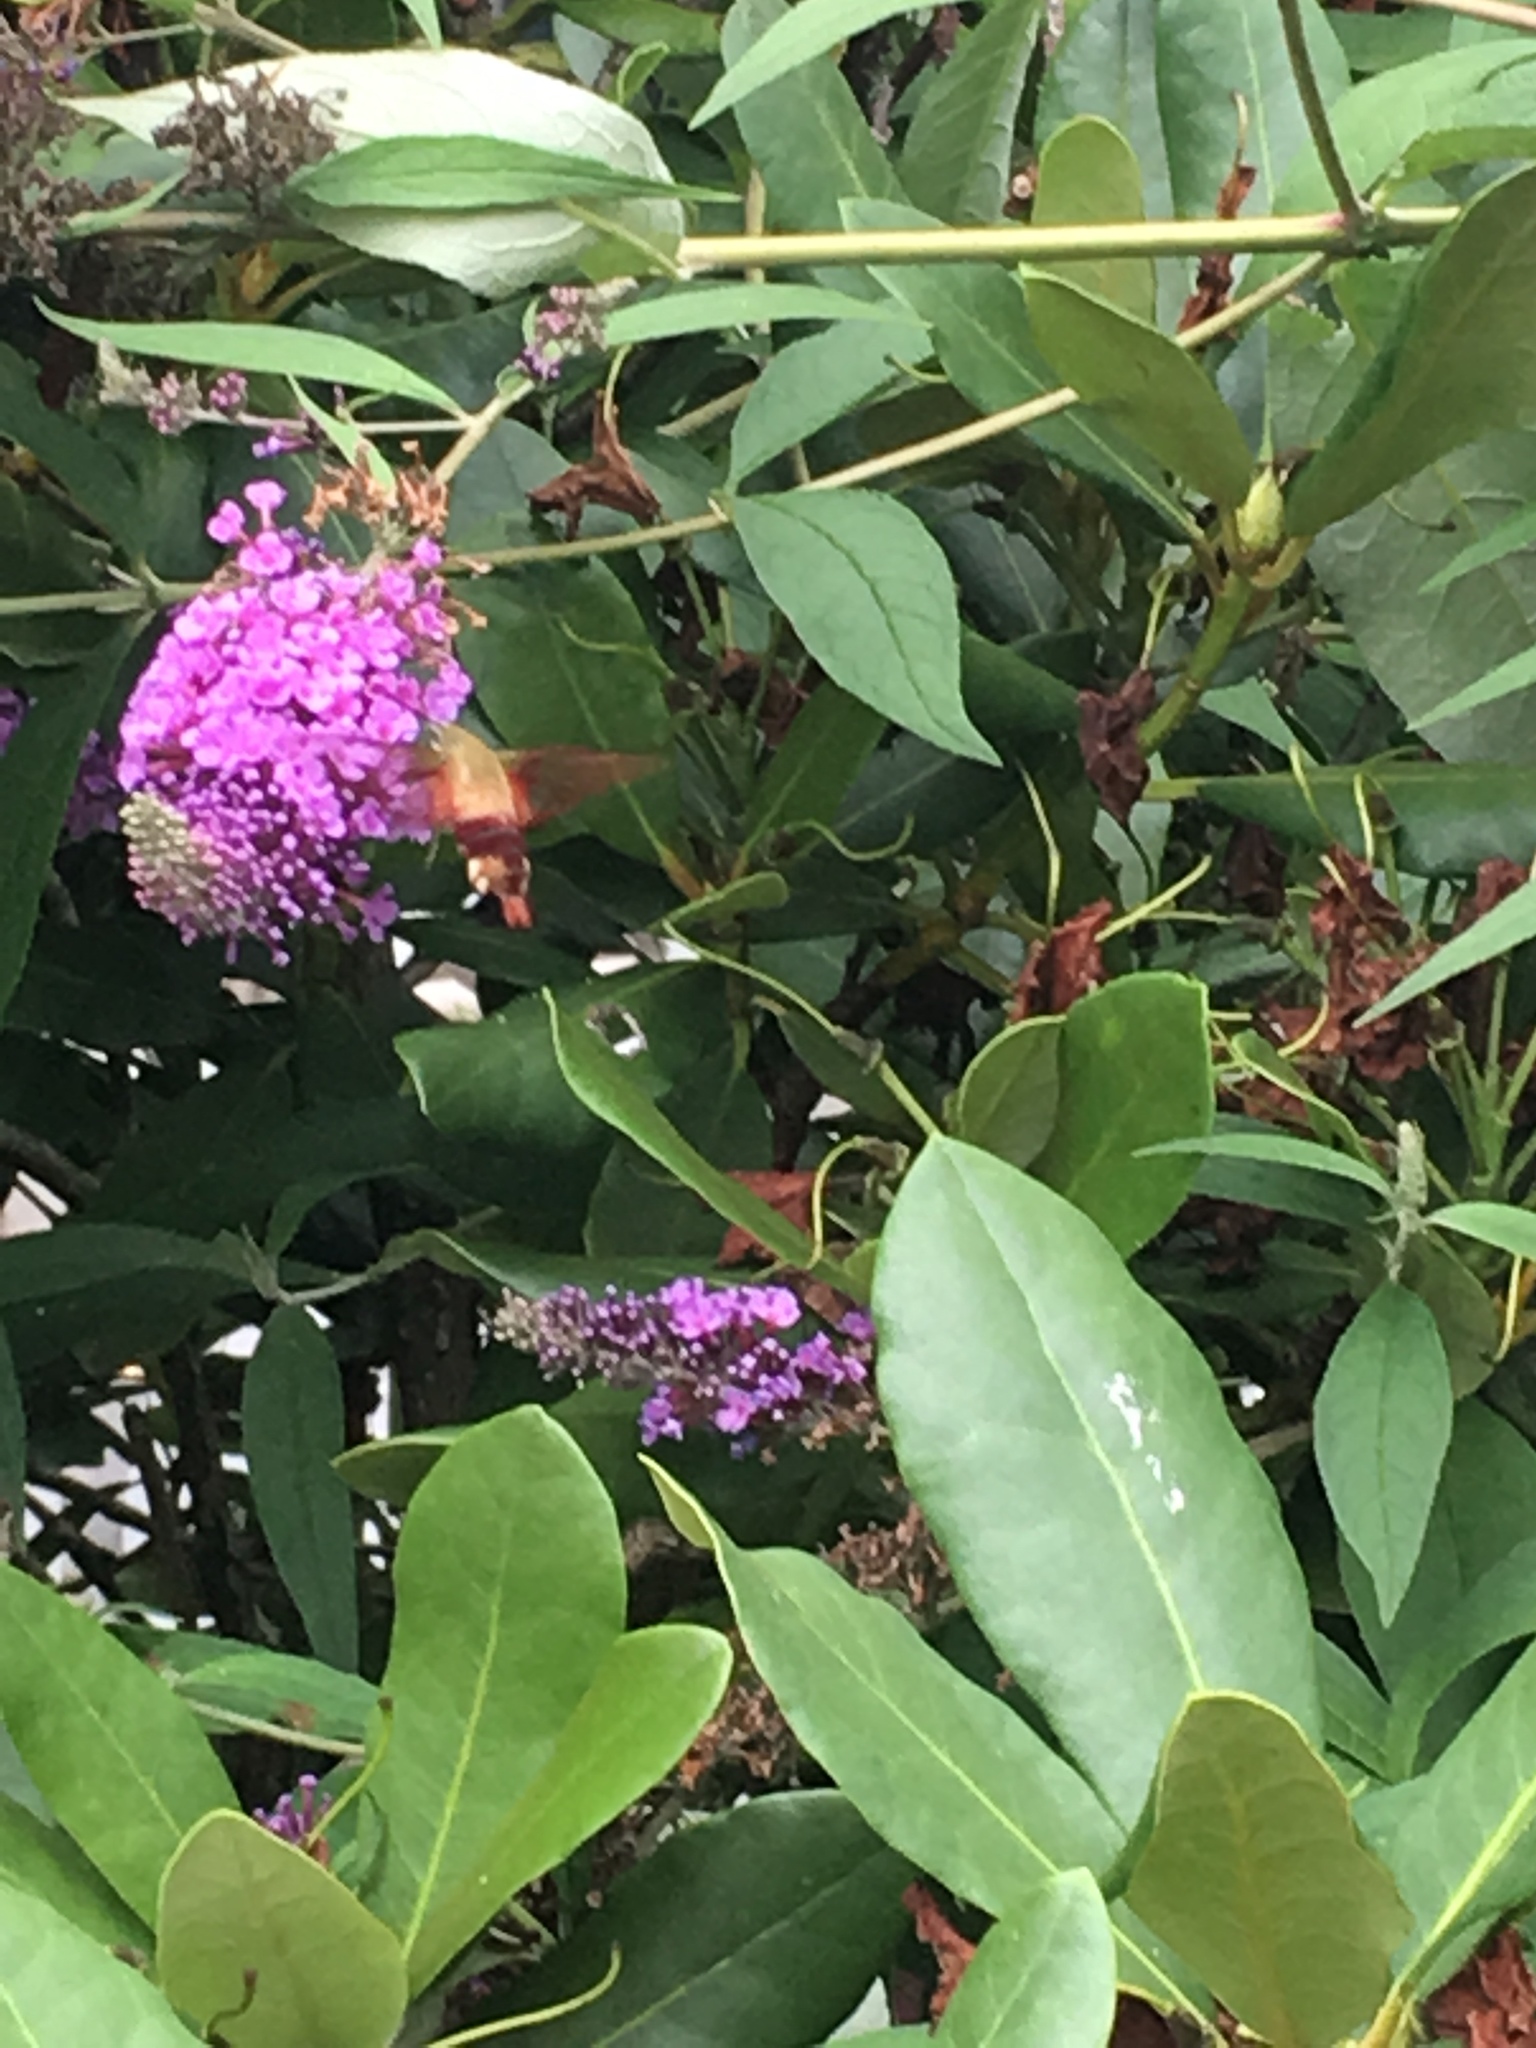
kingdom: Animalia
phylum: Arthropoda
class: Insecta
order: Lepidoptera
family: Sphingidae
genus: Hemaris
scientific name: Hemaris thysbe
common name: Common clear-wing
